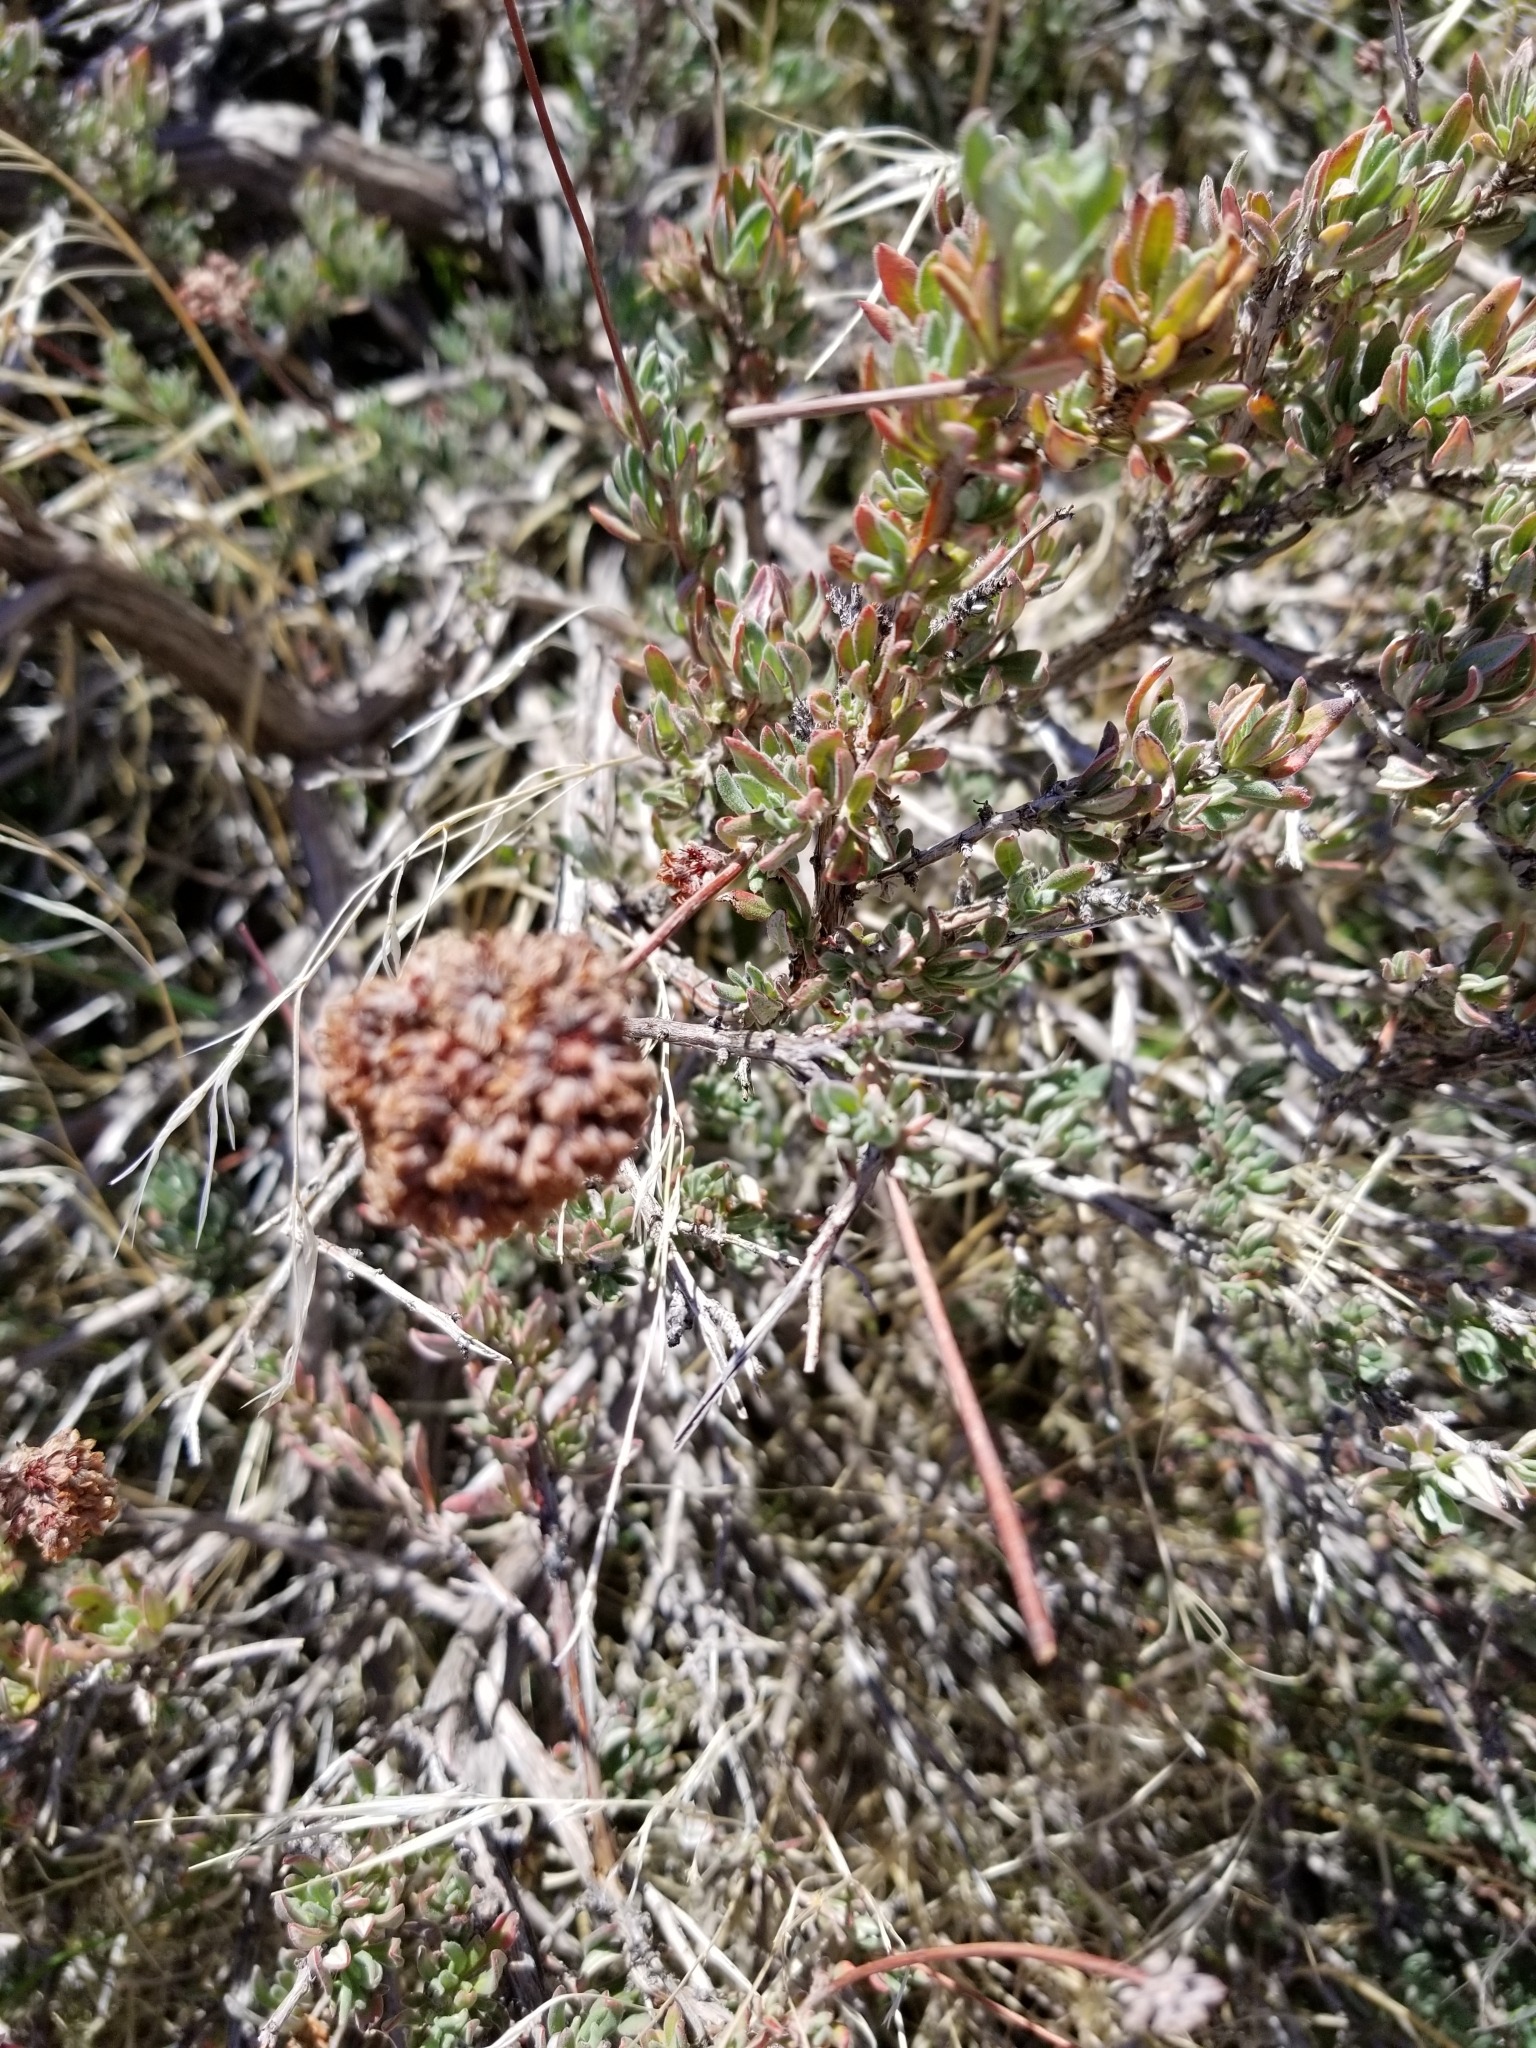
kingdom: Plantae
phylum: Tracheophyta
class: Magnoliopsida
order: Caryophyllales
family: Polygonaceae
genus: Eriogonum
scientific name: Eriogonum fasciculatum
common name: California wild buckwheat
